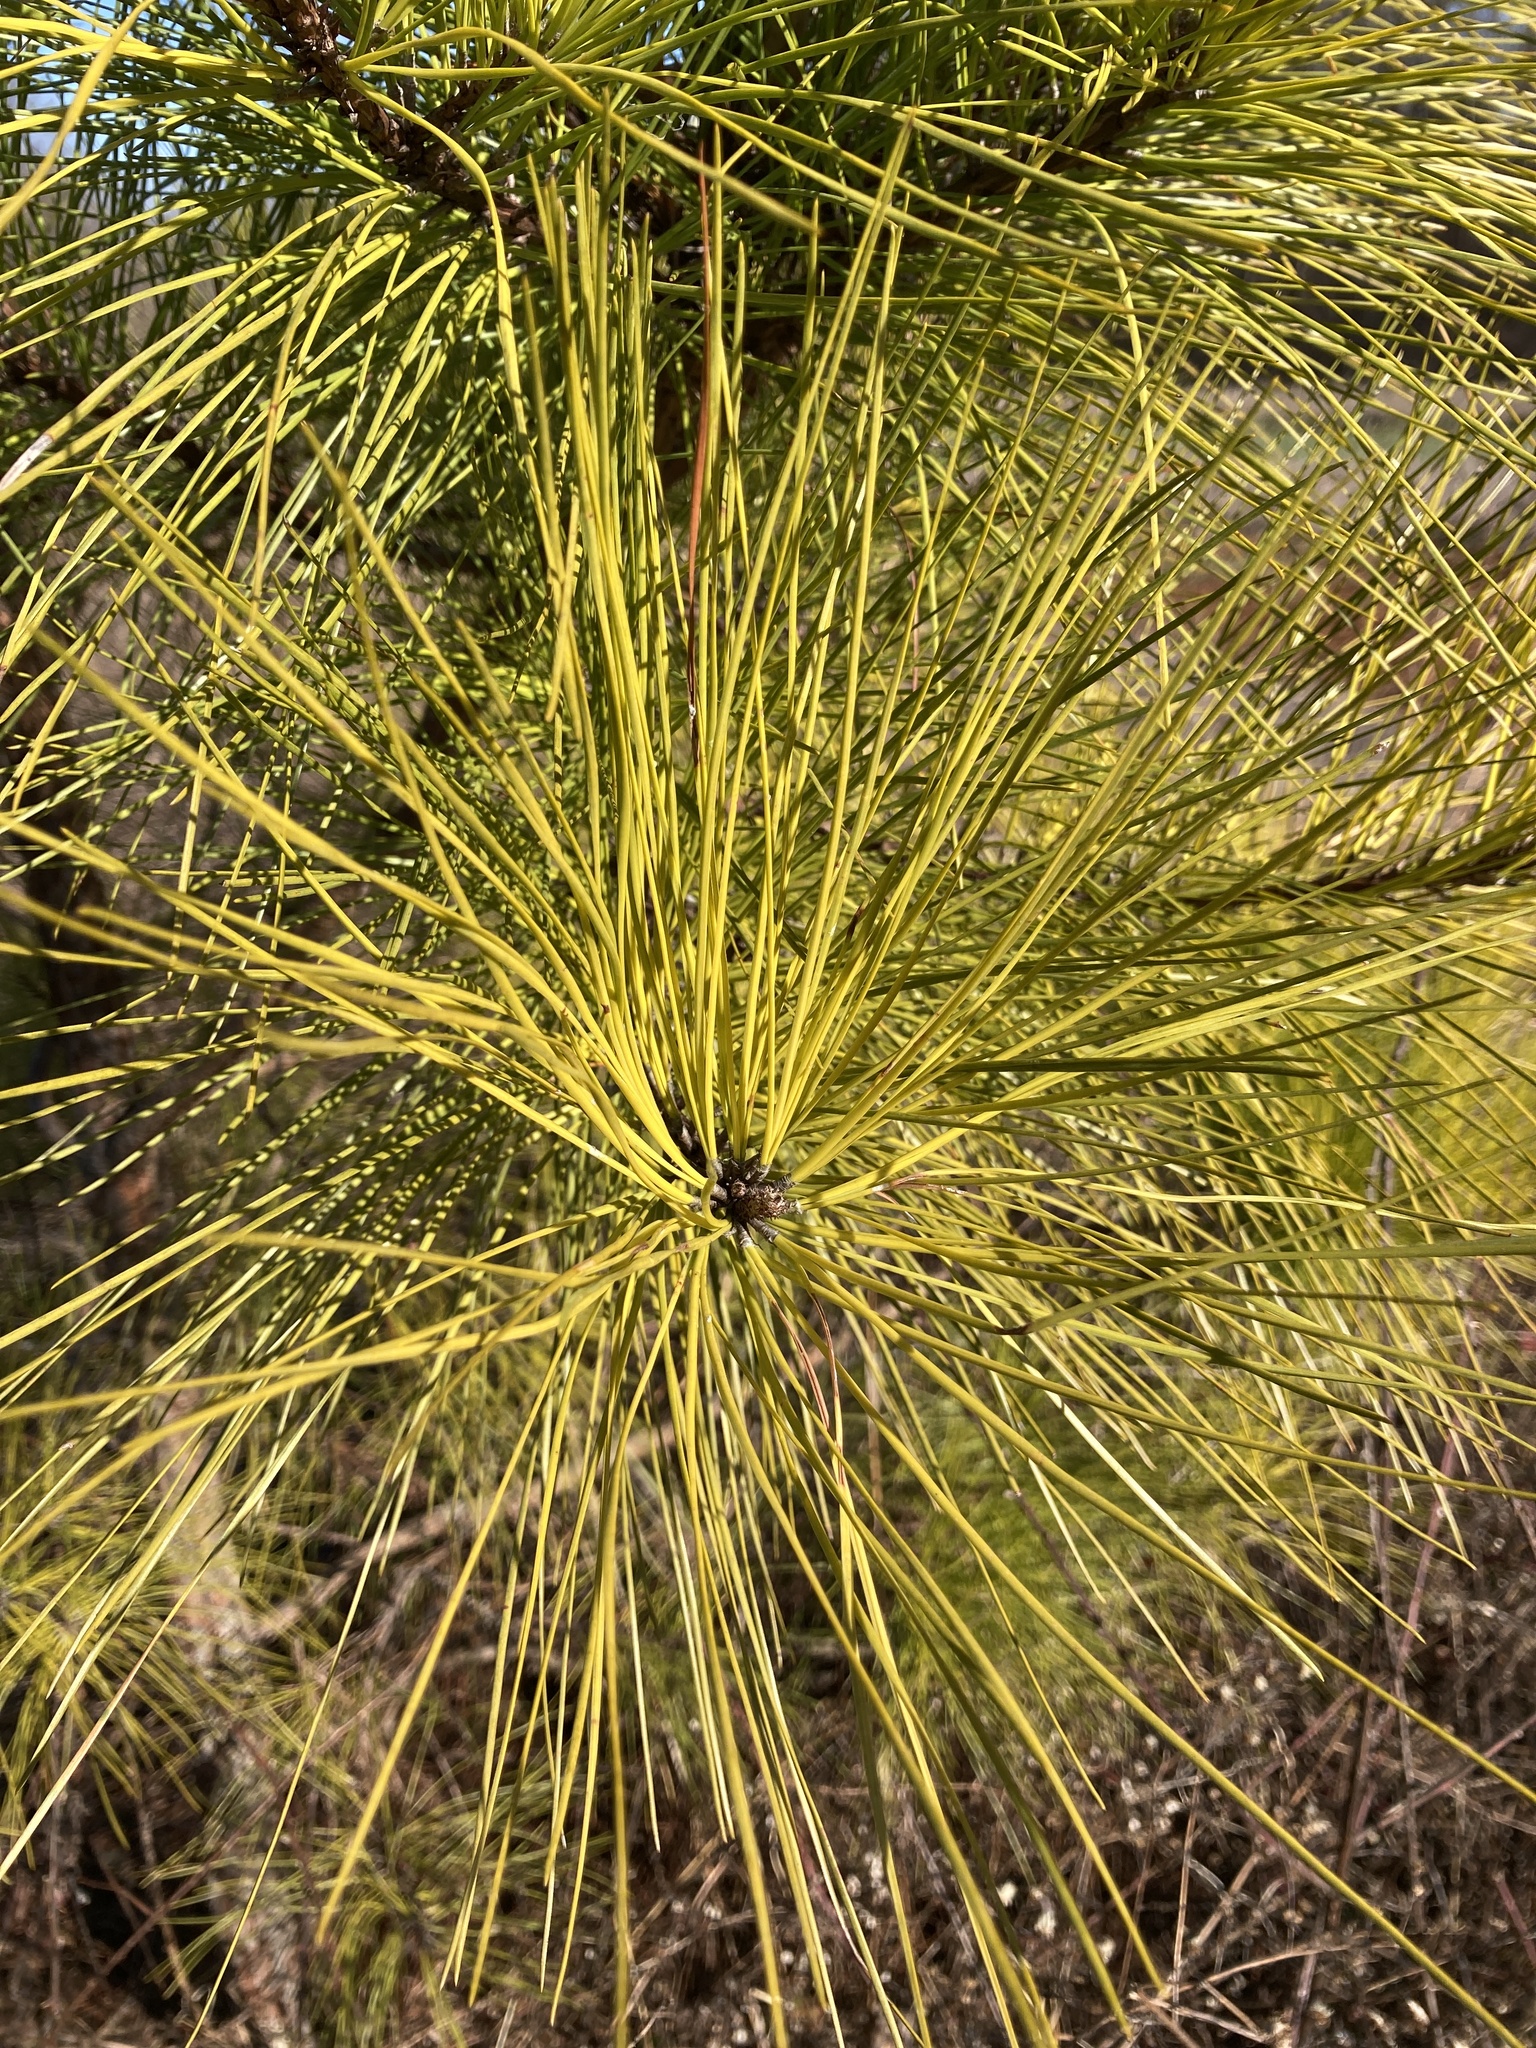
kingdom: Plantae
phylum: Tracheophyta
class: Pinopsida
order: Pinales
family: Pinaceae
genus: Pinus
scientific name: Pinus taeda
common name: Loblolly pine
